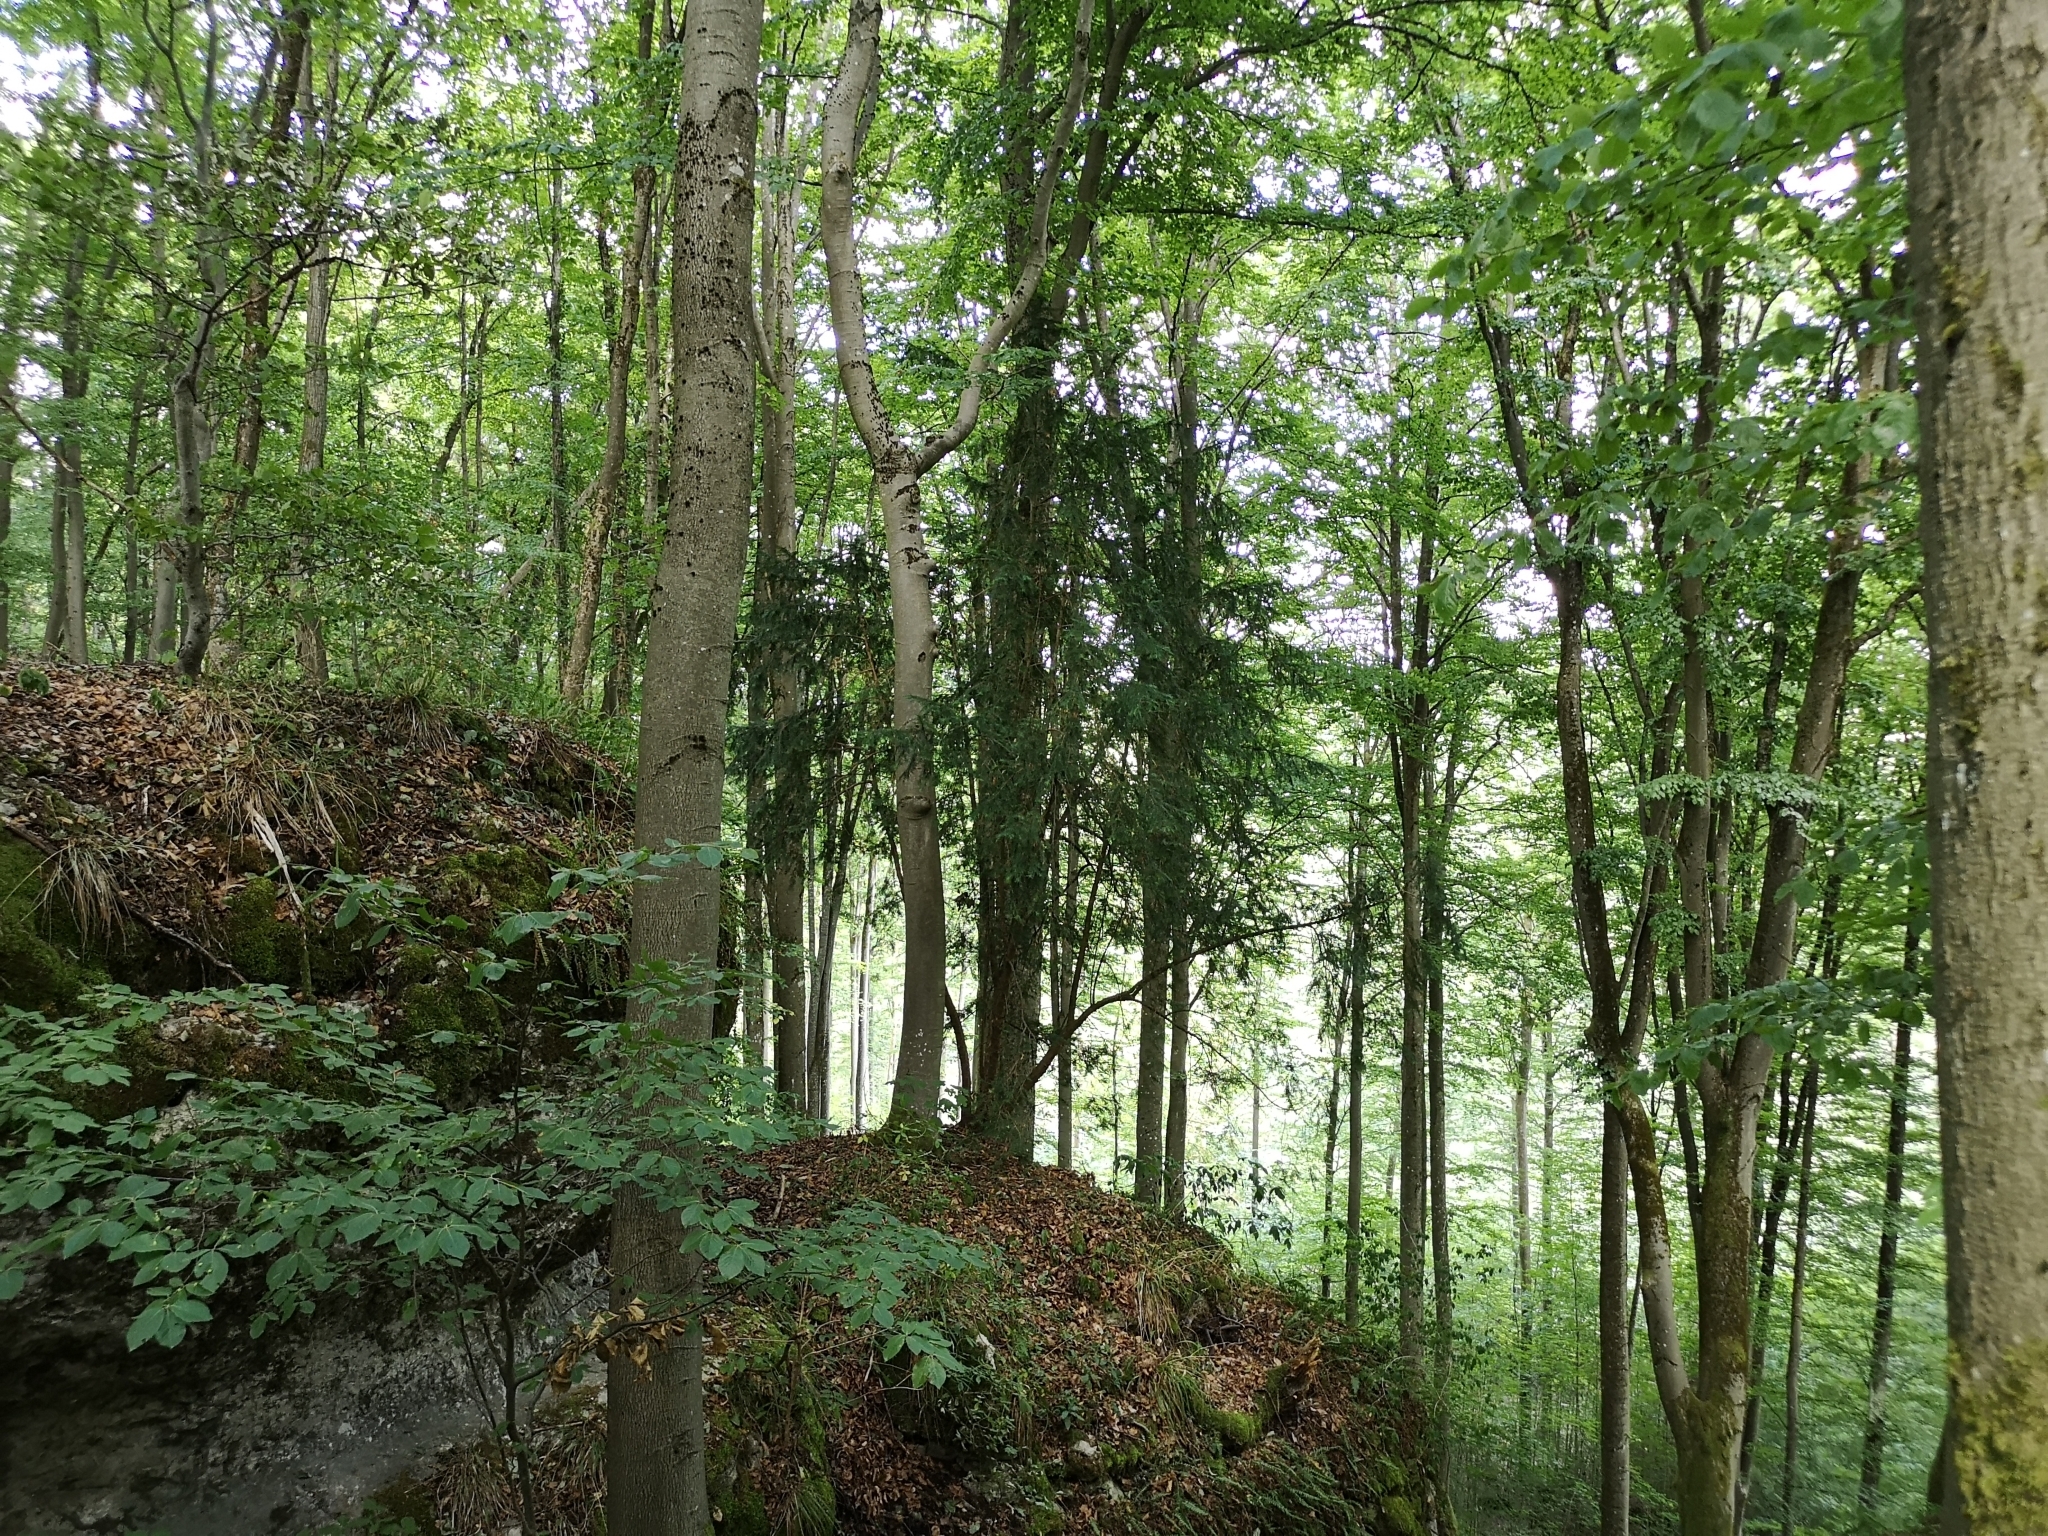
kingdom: Plantae
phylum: Tracheophyta
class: Pinopsida
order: Pinales
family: Taxaceae
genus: Taxus
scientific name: Taxus baccata
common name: Yew
